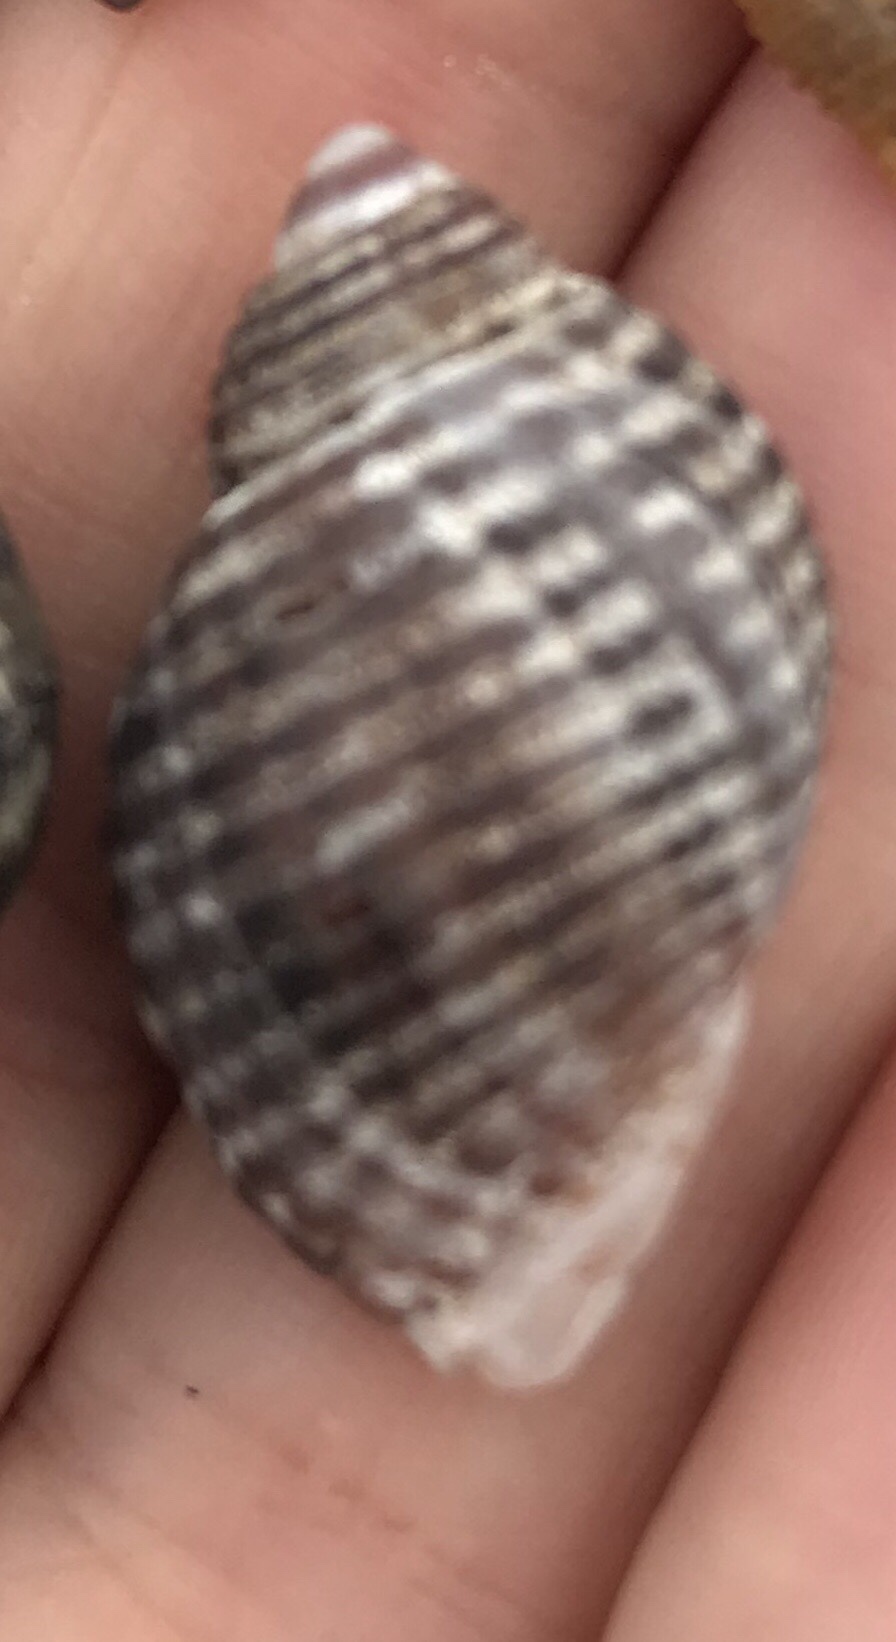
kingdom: Animalia
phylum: Mollusca
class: Gastropoda
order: Neogastropoda
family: Muricidae
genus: Nucella
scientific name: Nucella analoga
